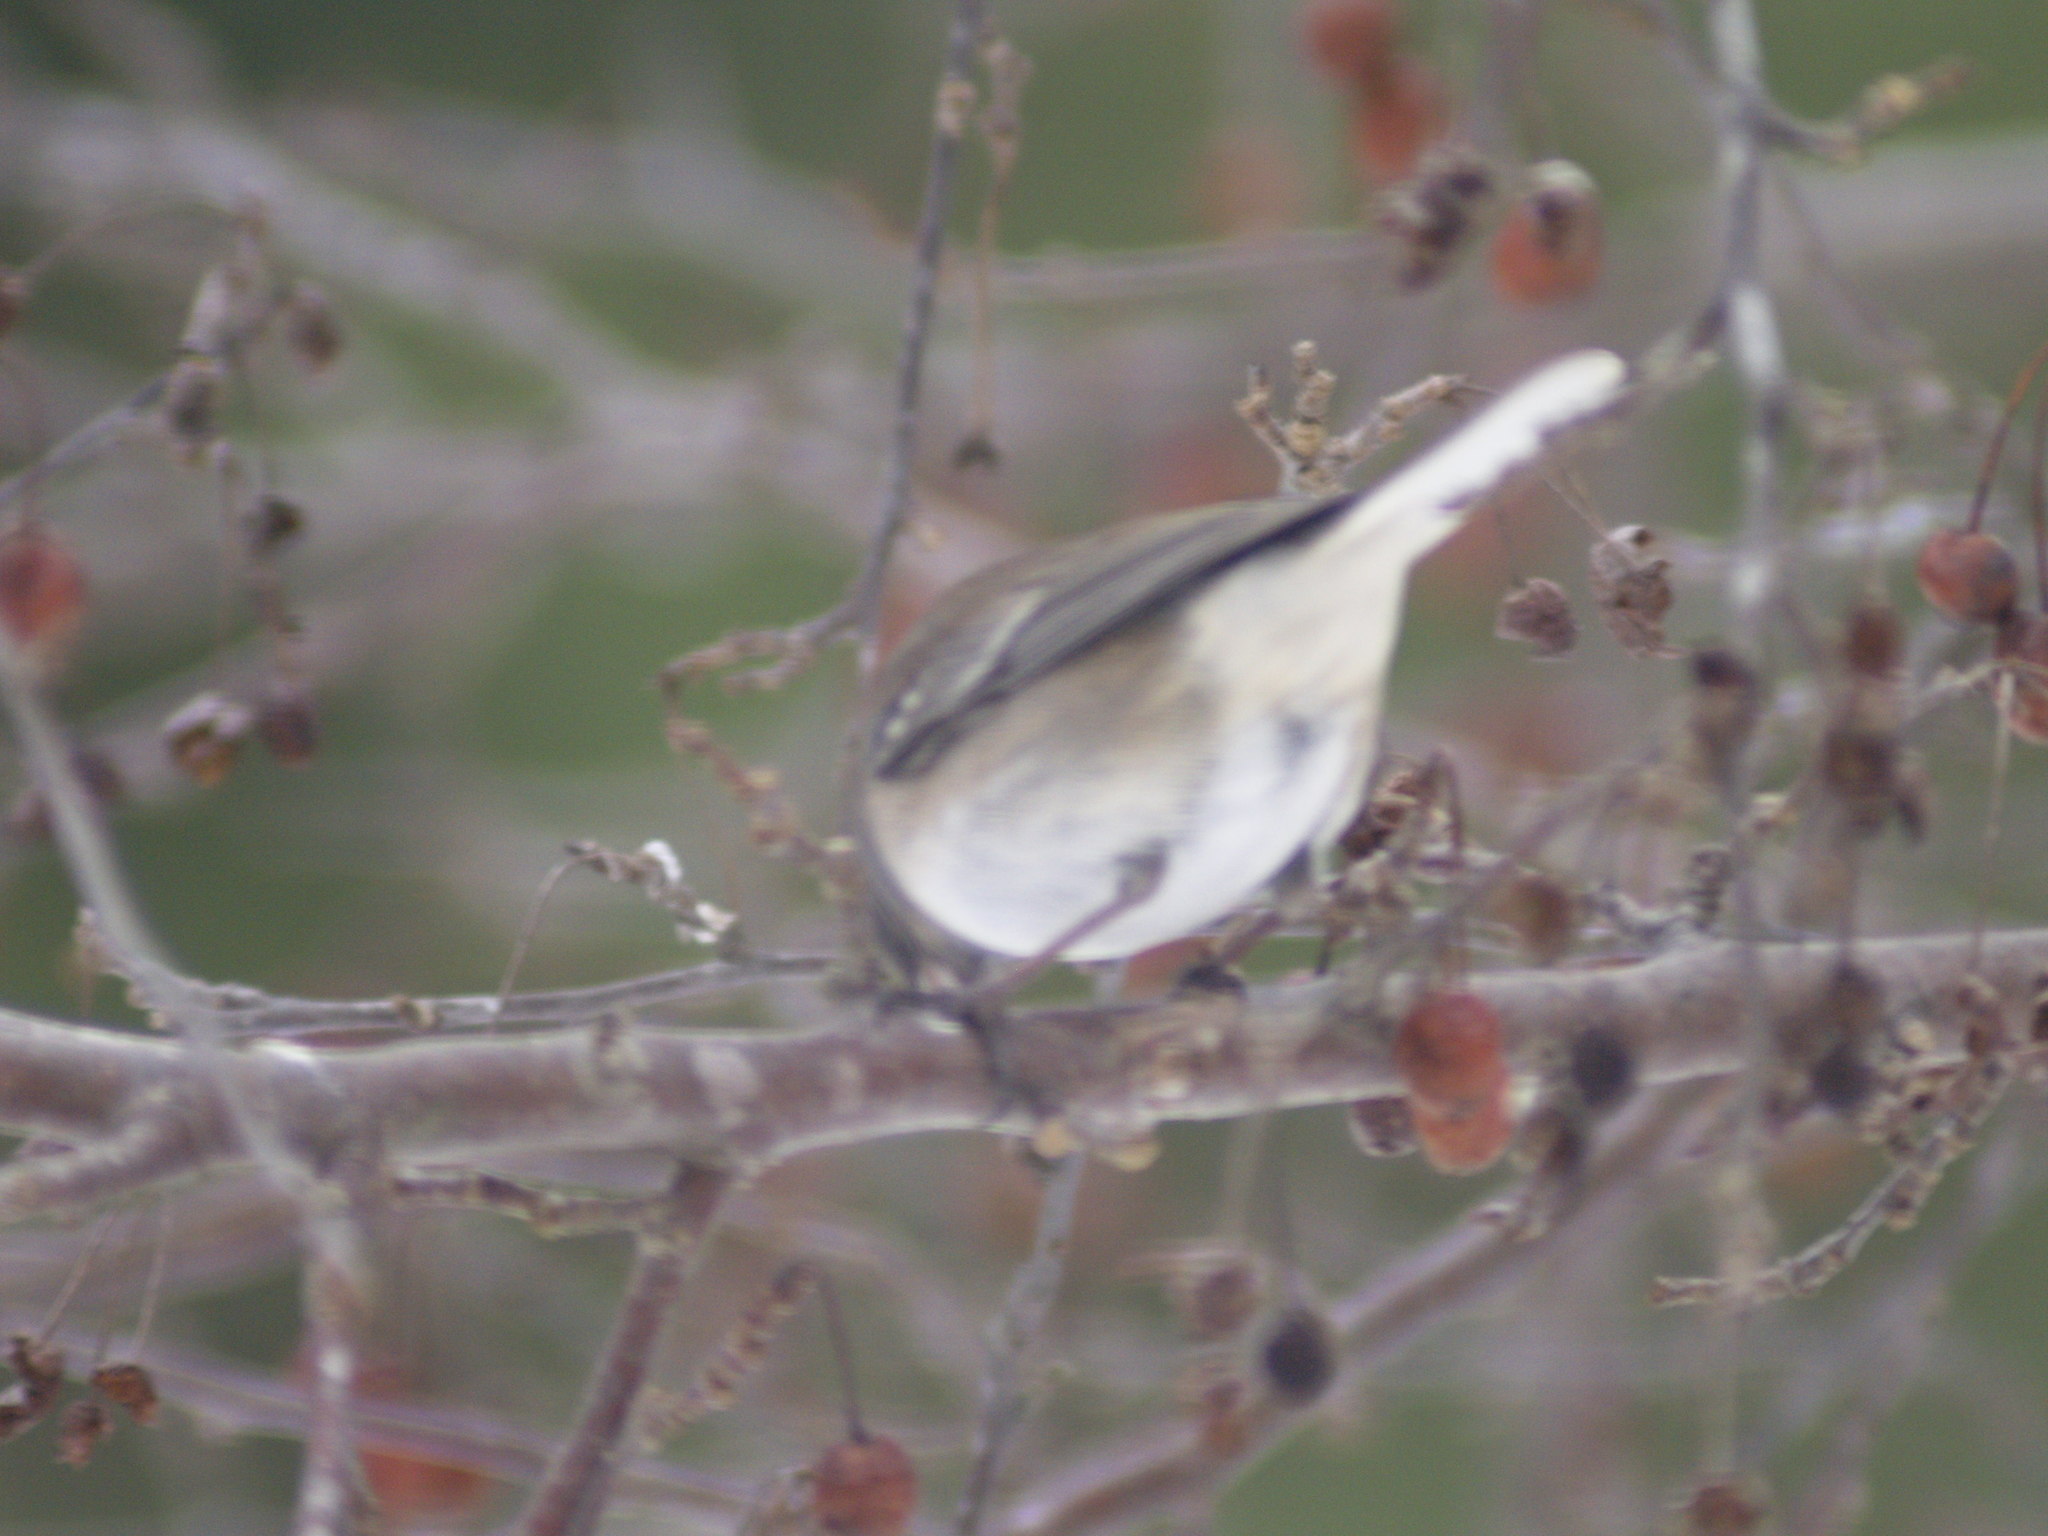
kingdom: Animalia
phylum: Chordata
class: Aves
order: Passeriformes
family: Passerellidae
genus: Junco
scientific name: Junco hyemalis
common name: Dark-eyed junco
